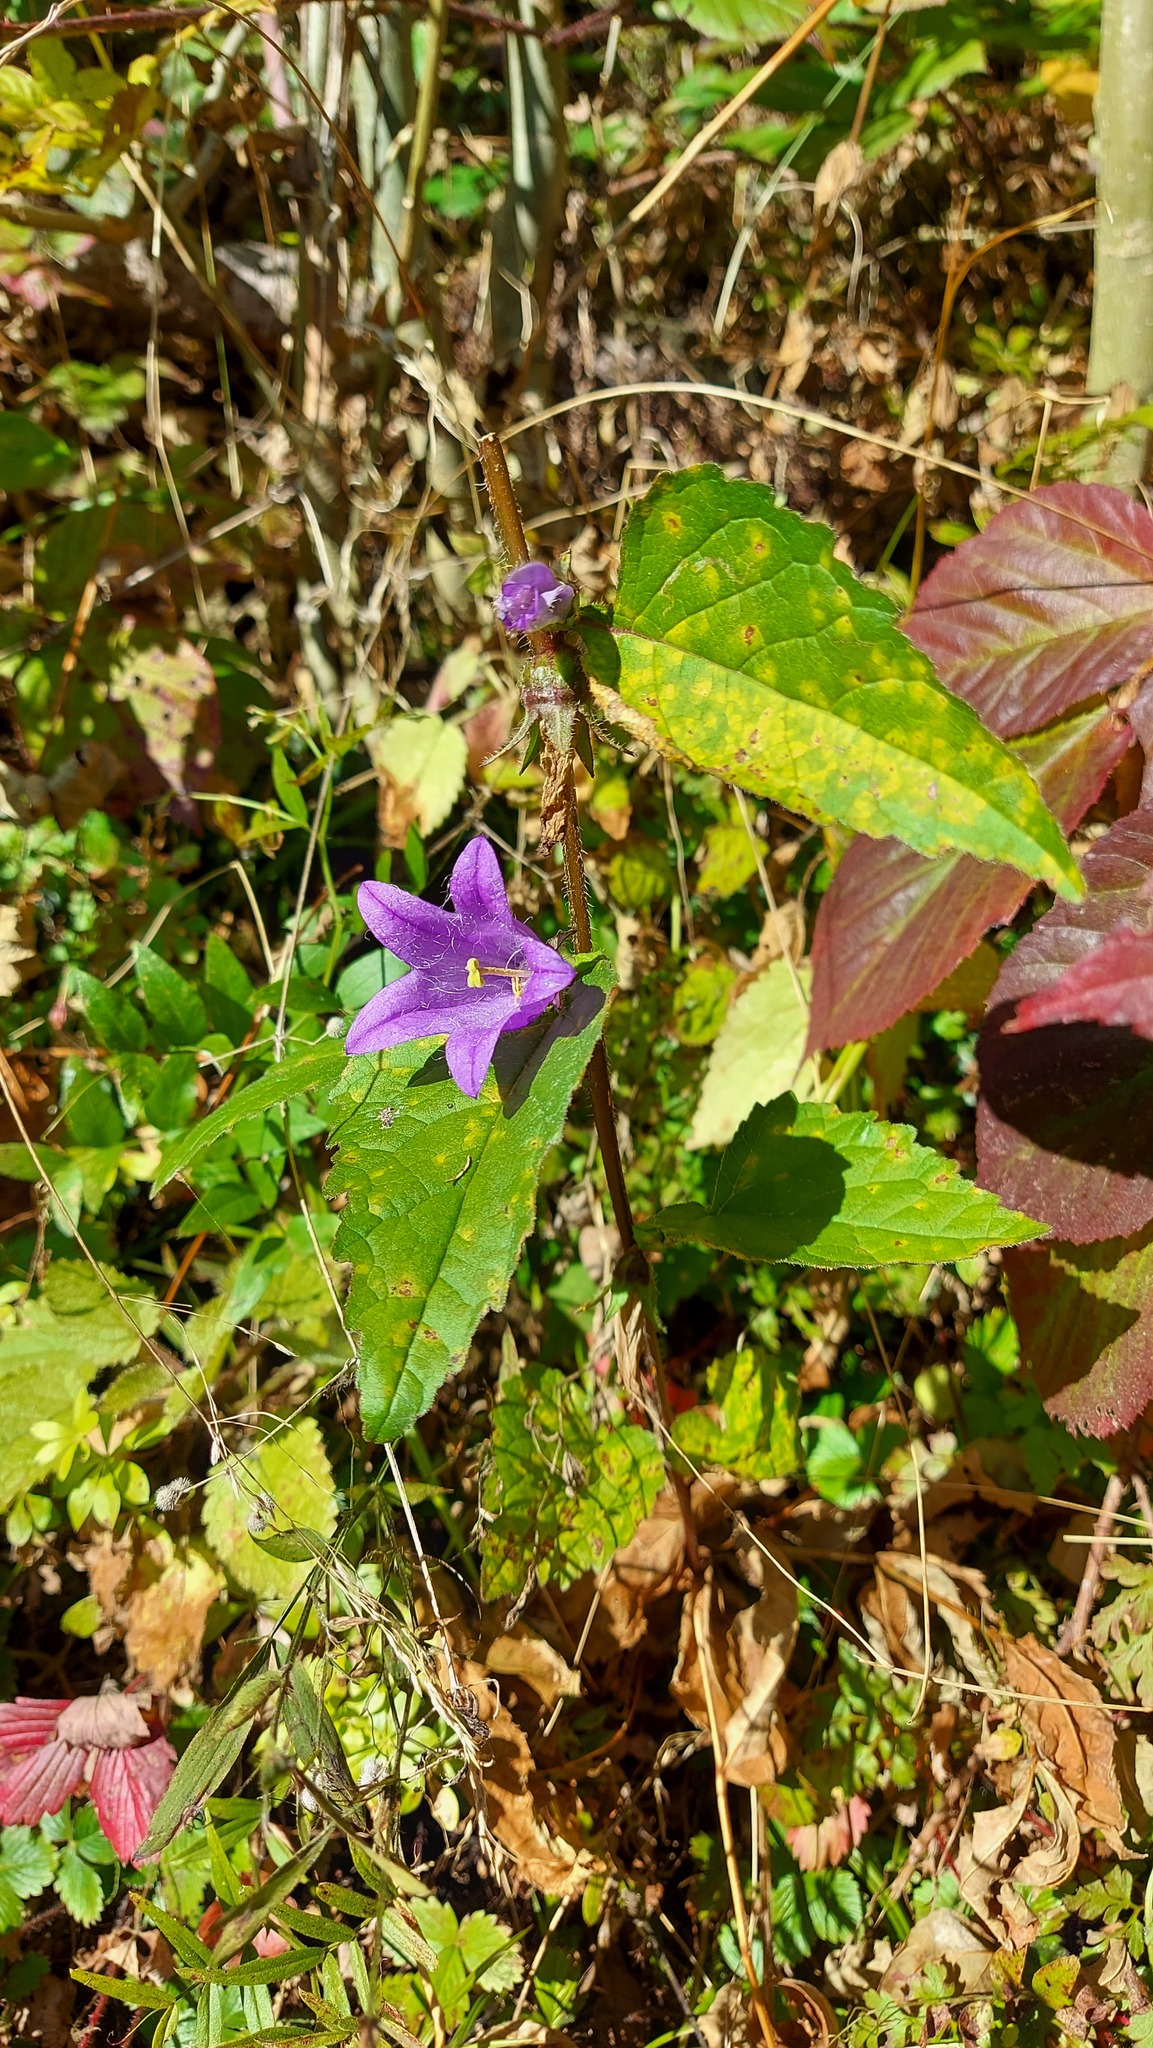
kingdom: Plantae
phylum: Tracheophyta
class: Magnoliopsida
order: Asterales
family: Campanulaceae
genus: Campanula
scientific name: Campanula trachelium
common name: Nettle-leaved bellflower
